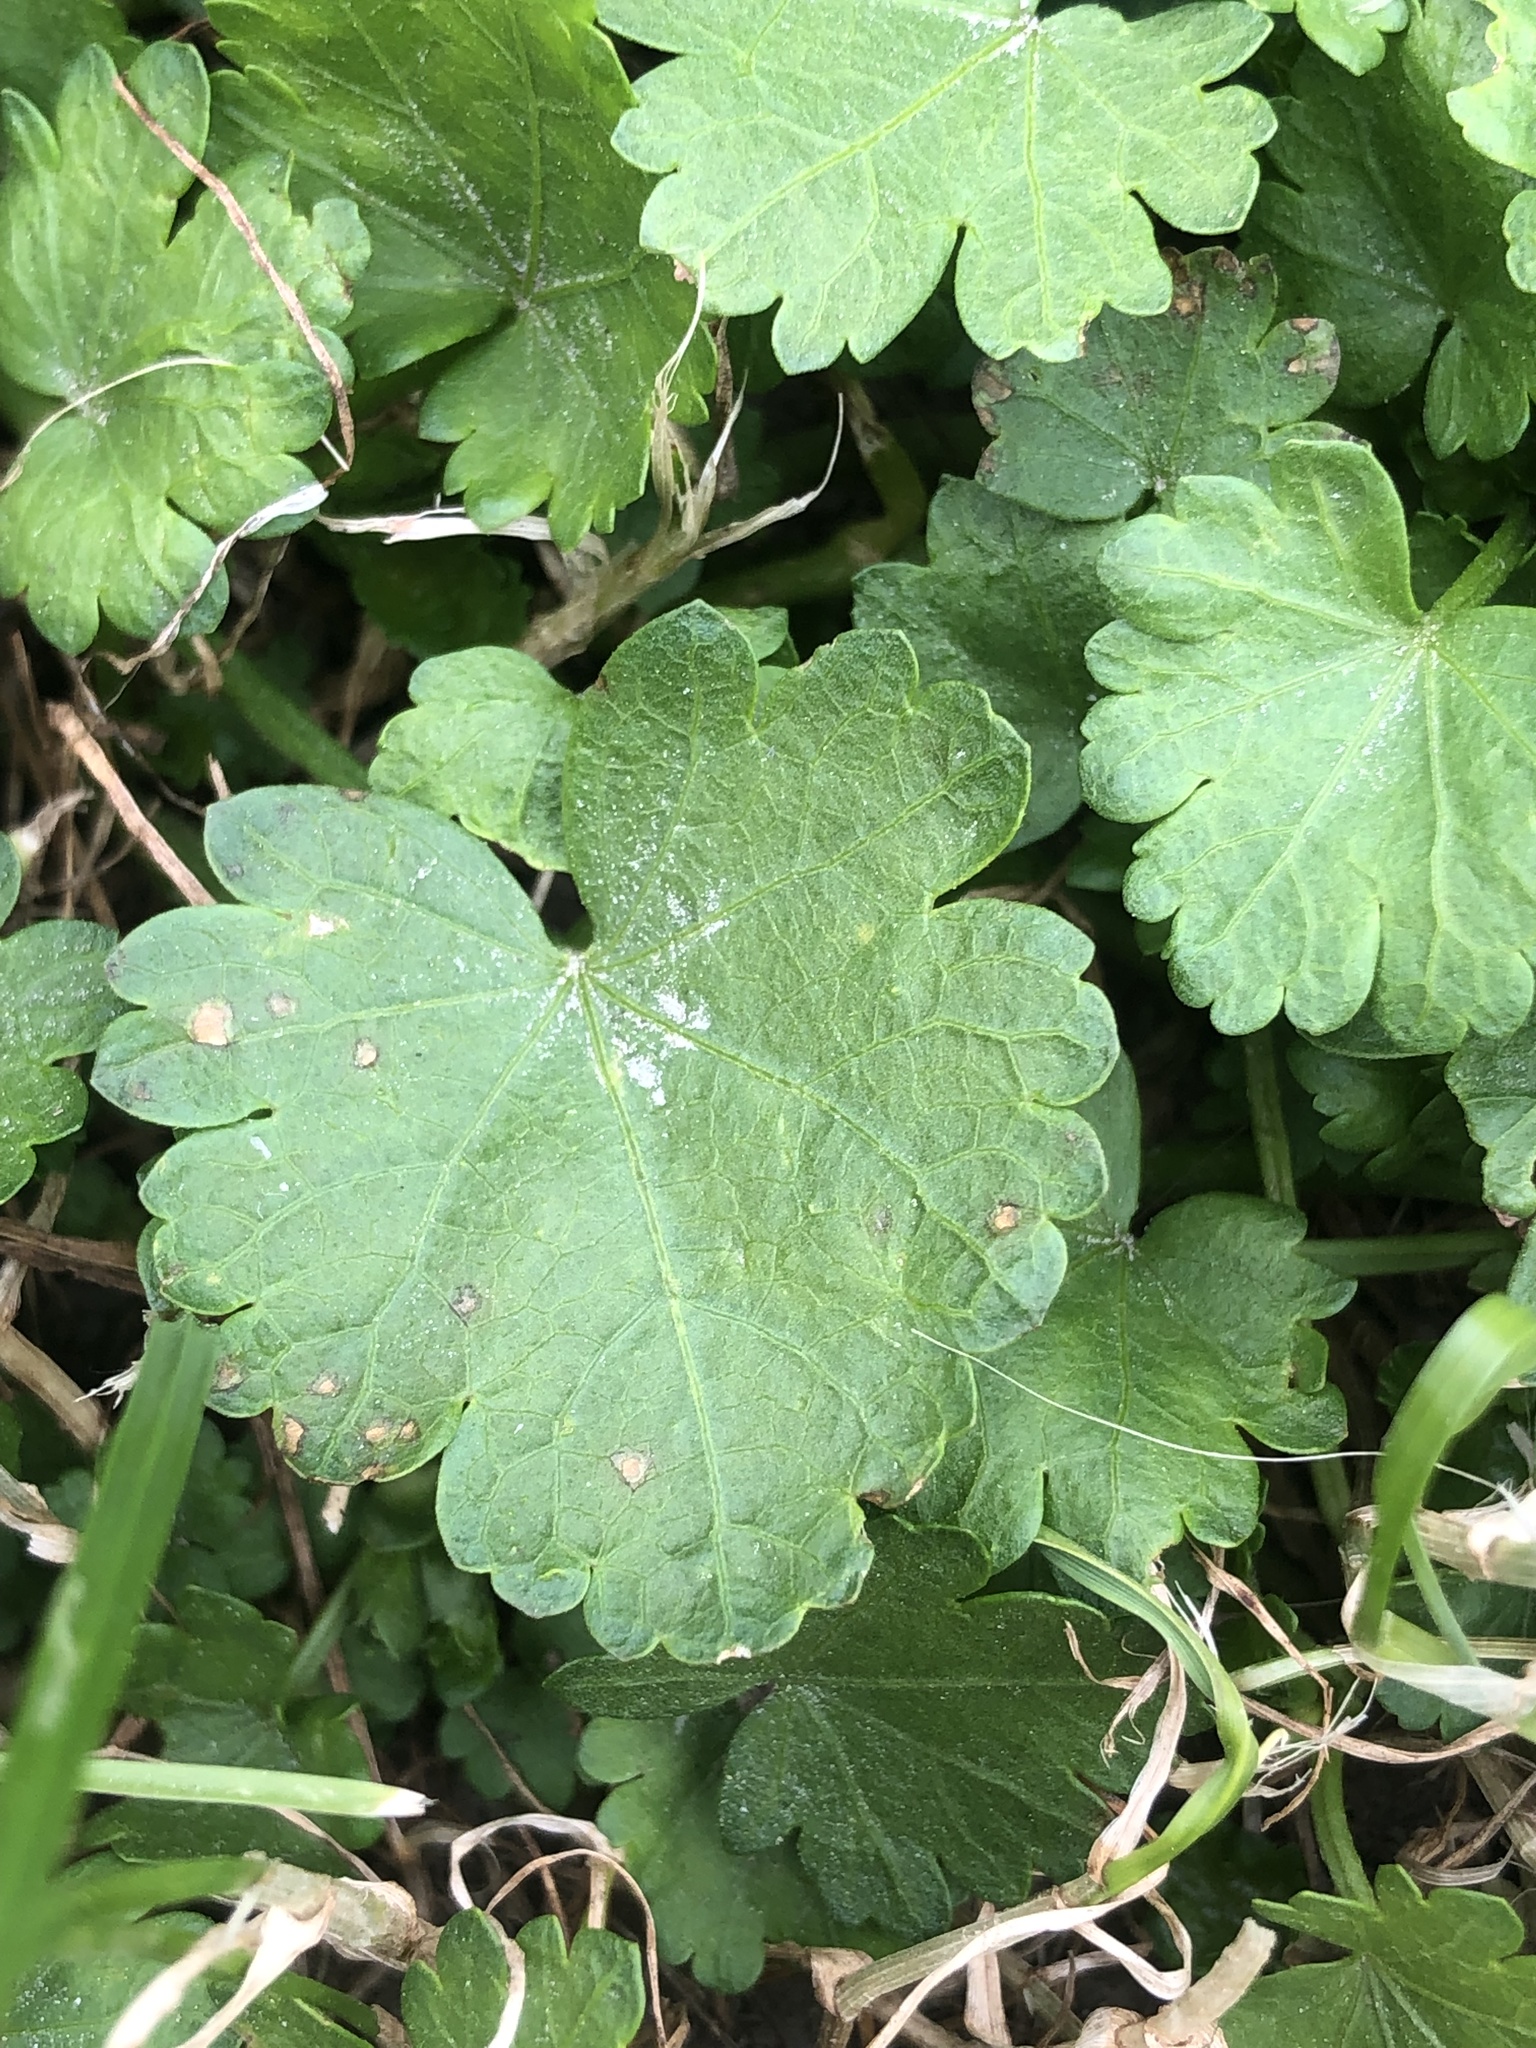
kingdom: Plantae
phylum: Tracheophyta
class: Magnoliopsida
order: Malvales
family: Malvaceae
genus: Modiola
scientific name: Modiola caroliniana
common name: Carolina bristlemallow
